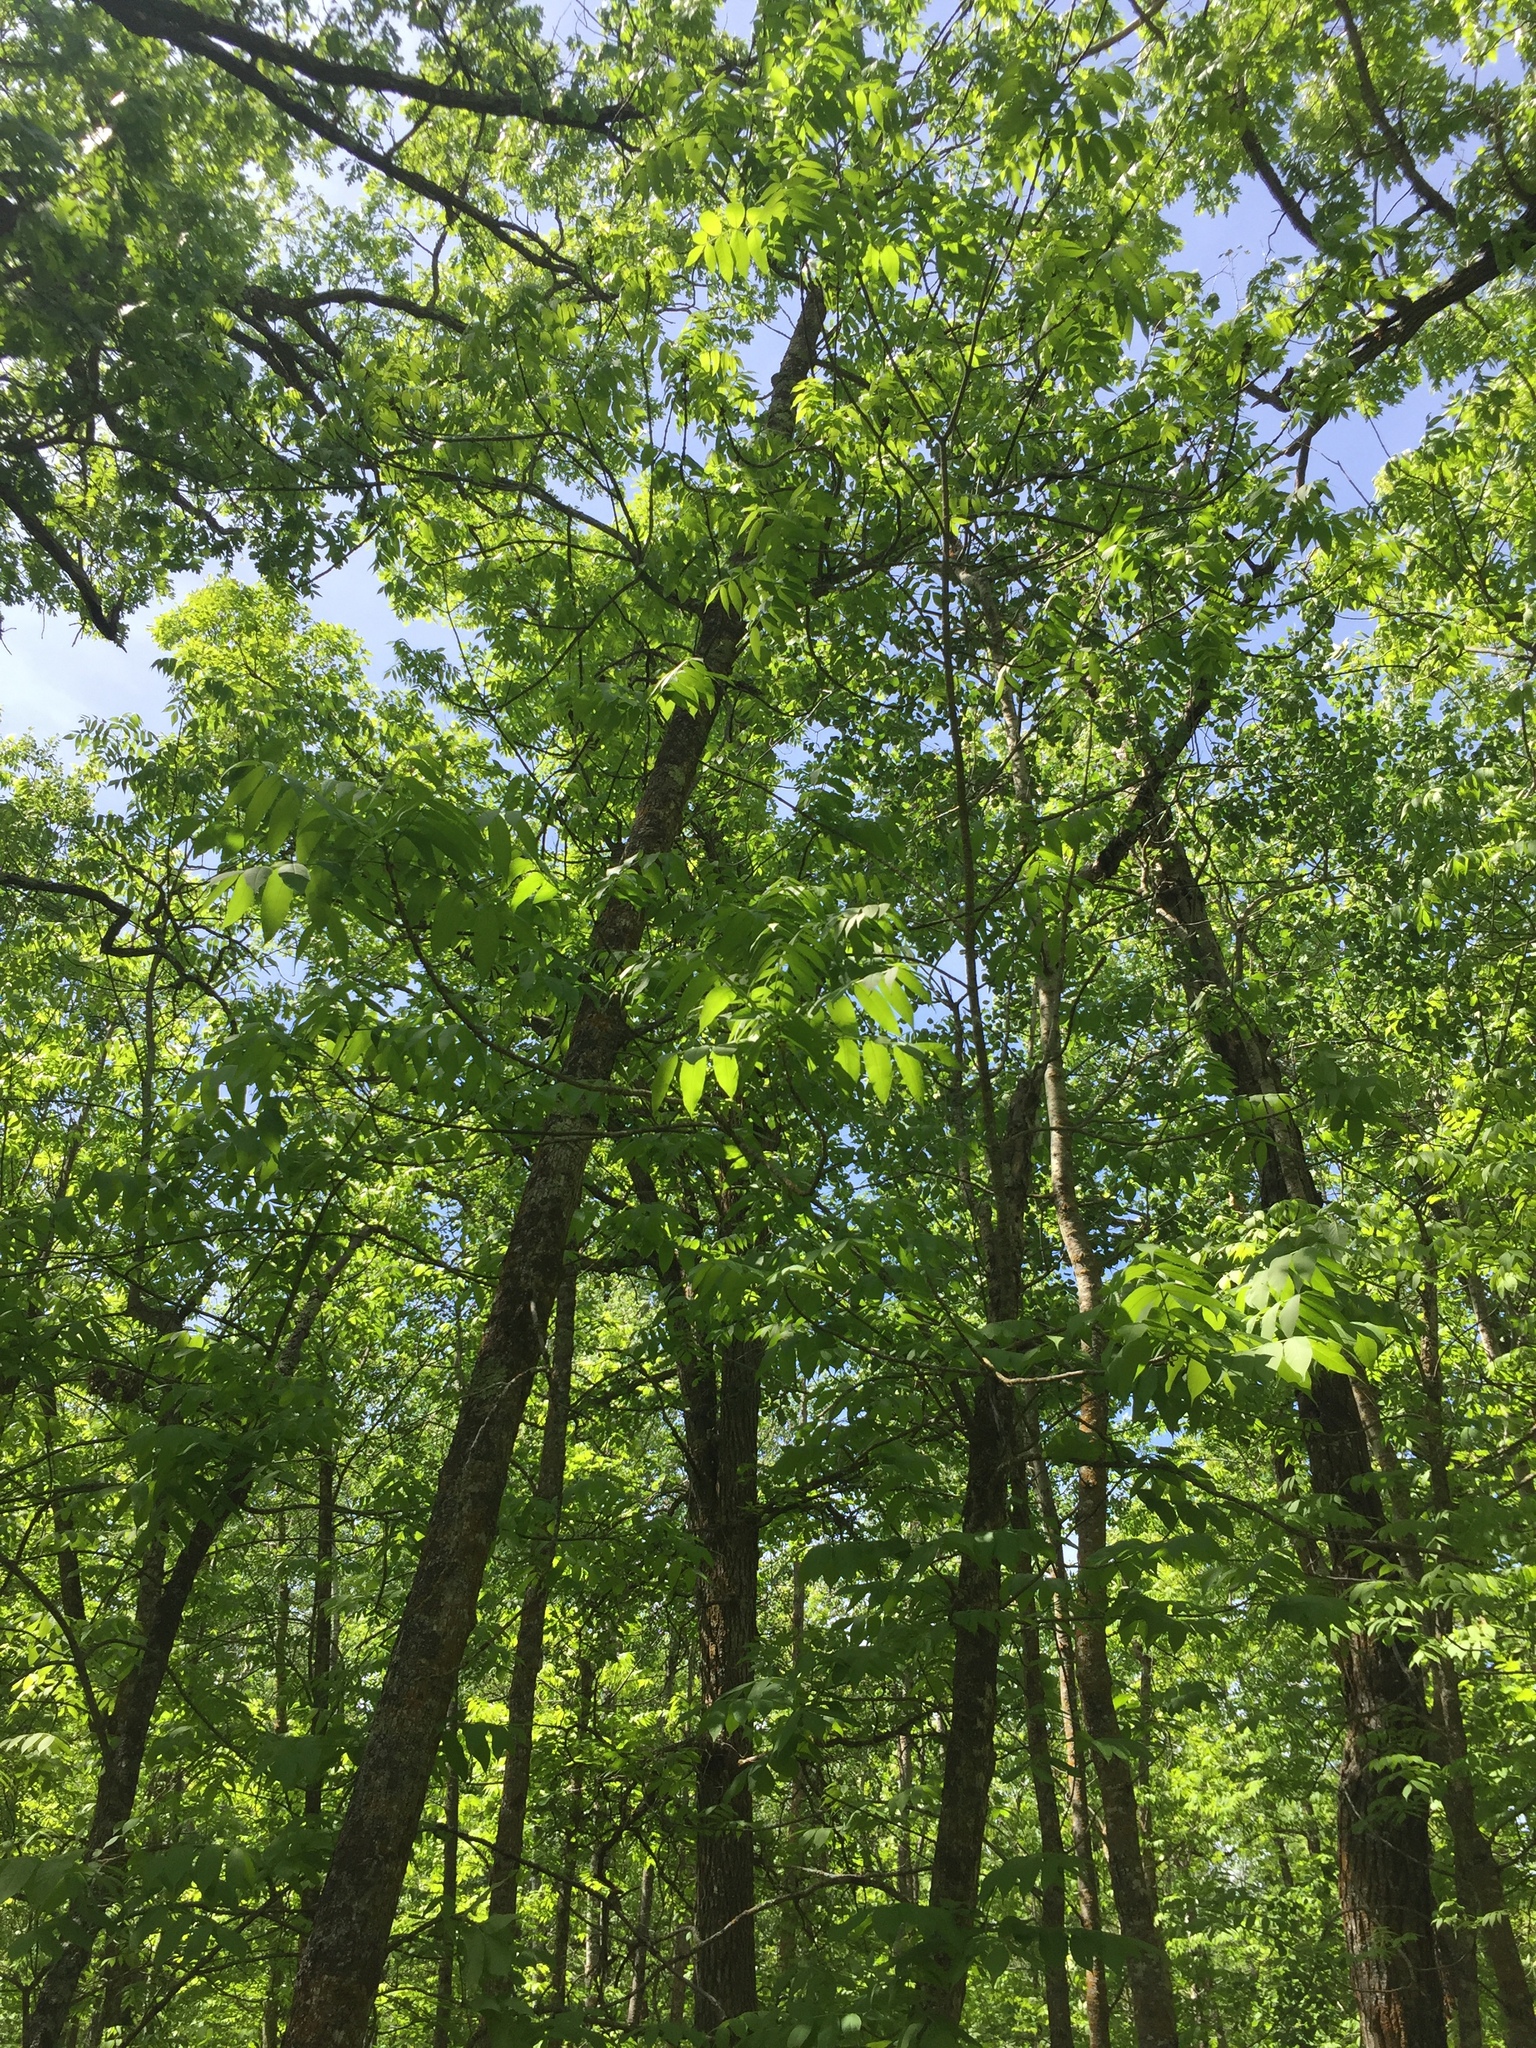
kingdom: Plantae
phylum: Tracheophyta
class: Magnoliopsida
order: Lamiales
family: Oleaceae
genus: Fraxinus
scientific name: Fraxinus nigra
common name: Black ash
